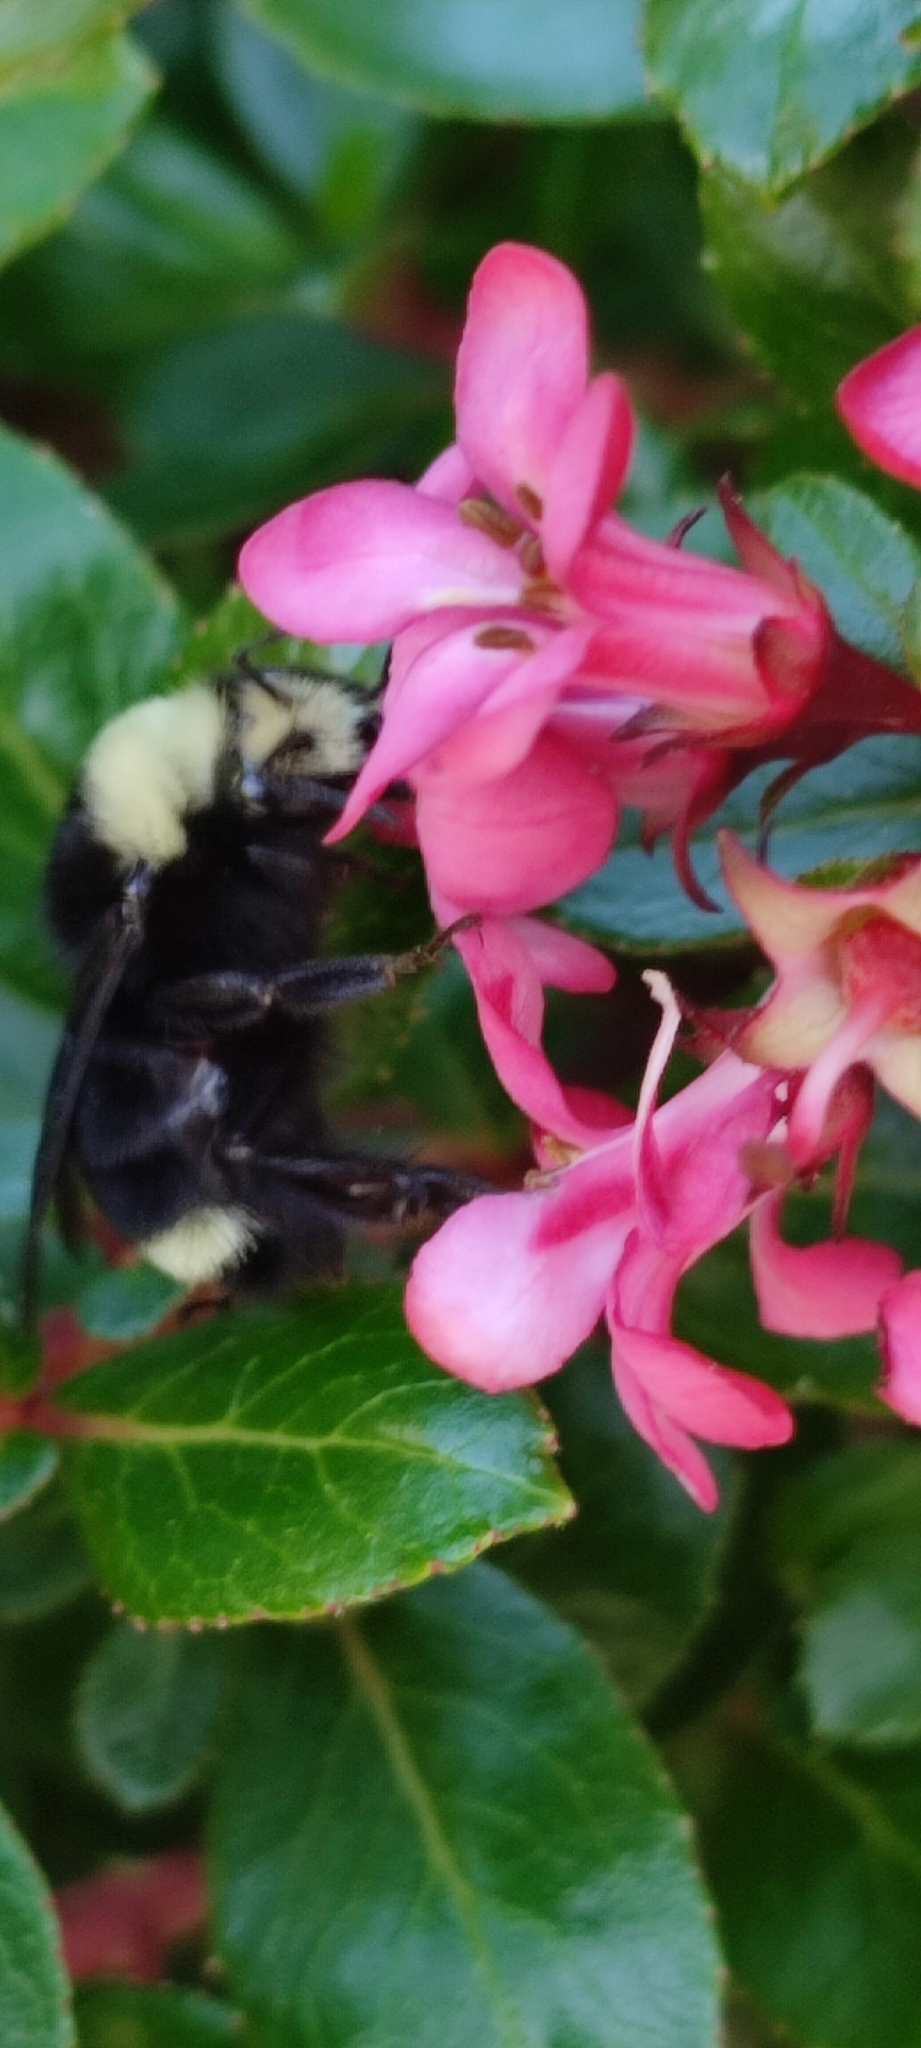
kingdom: Animalia
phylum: Arthropoda
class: Insecta
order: Hymenoptera
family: Apidae
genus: Bombus
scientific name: Bombus vosnesenskii
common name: Vosnesensky bumble bee
